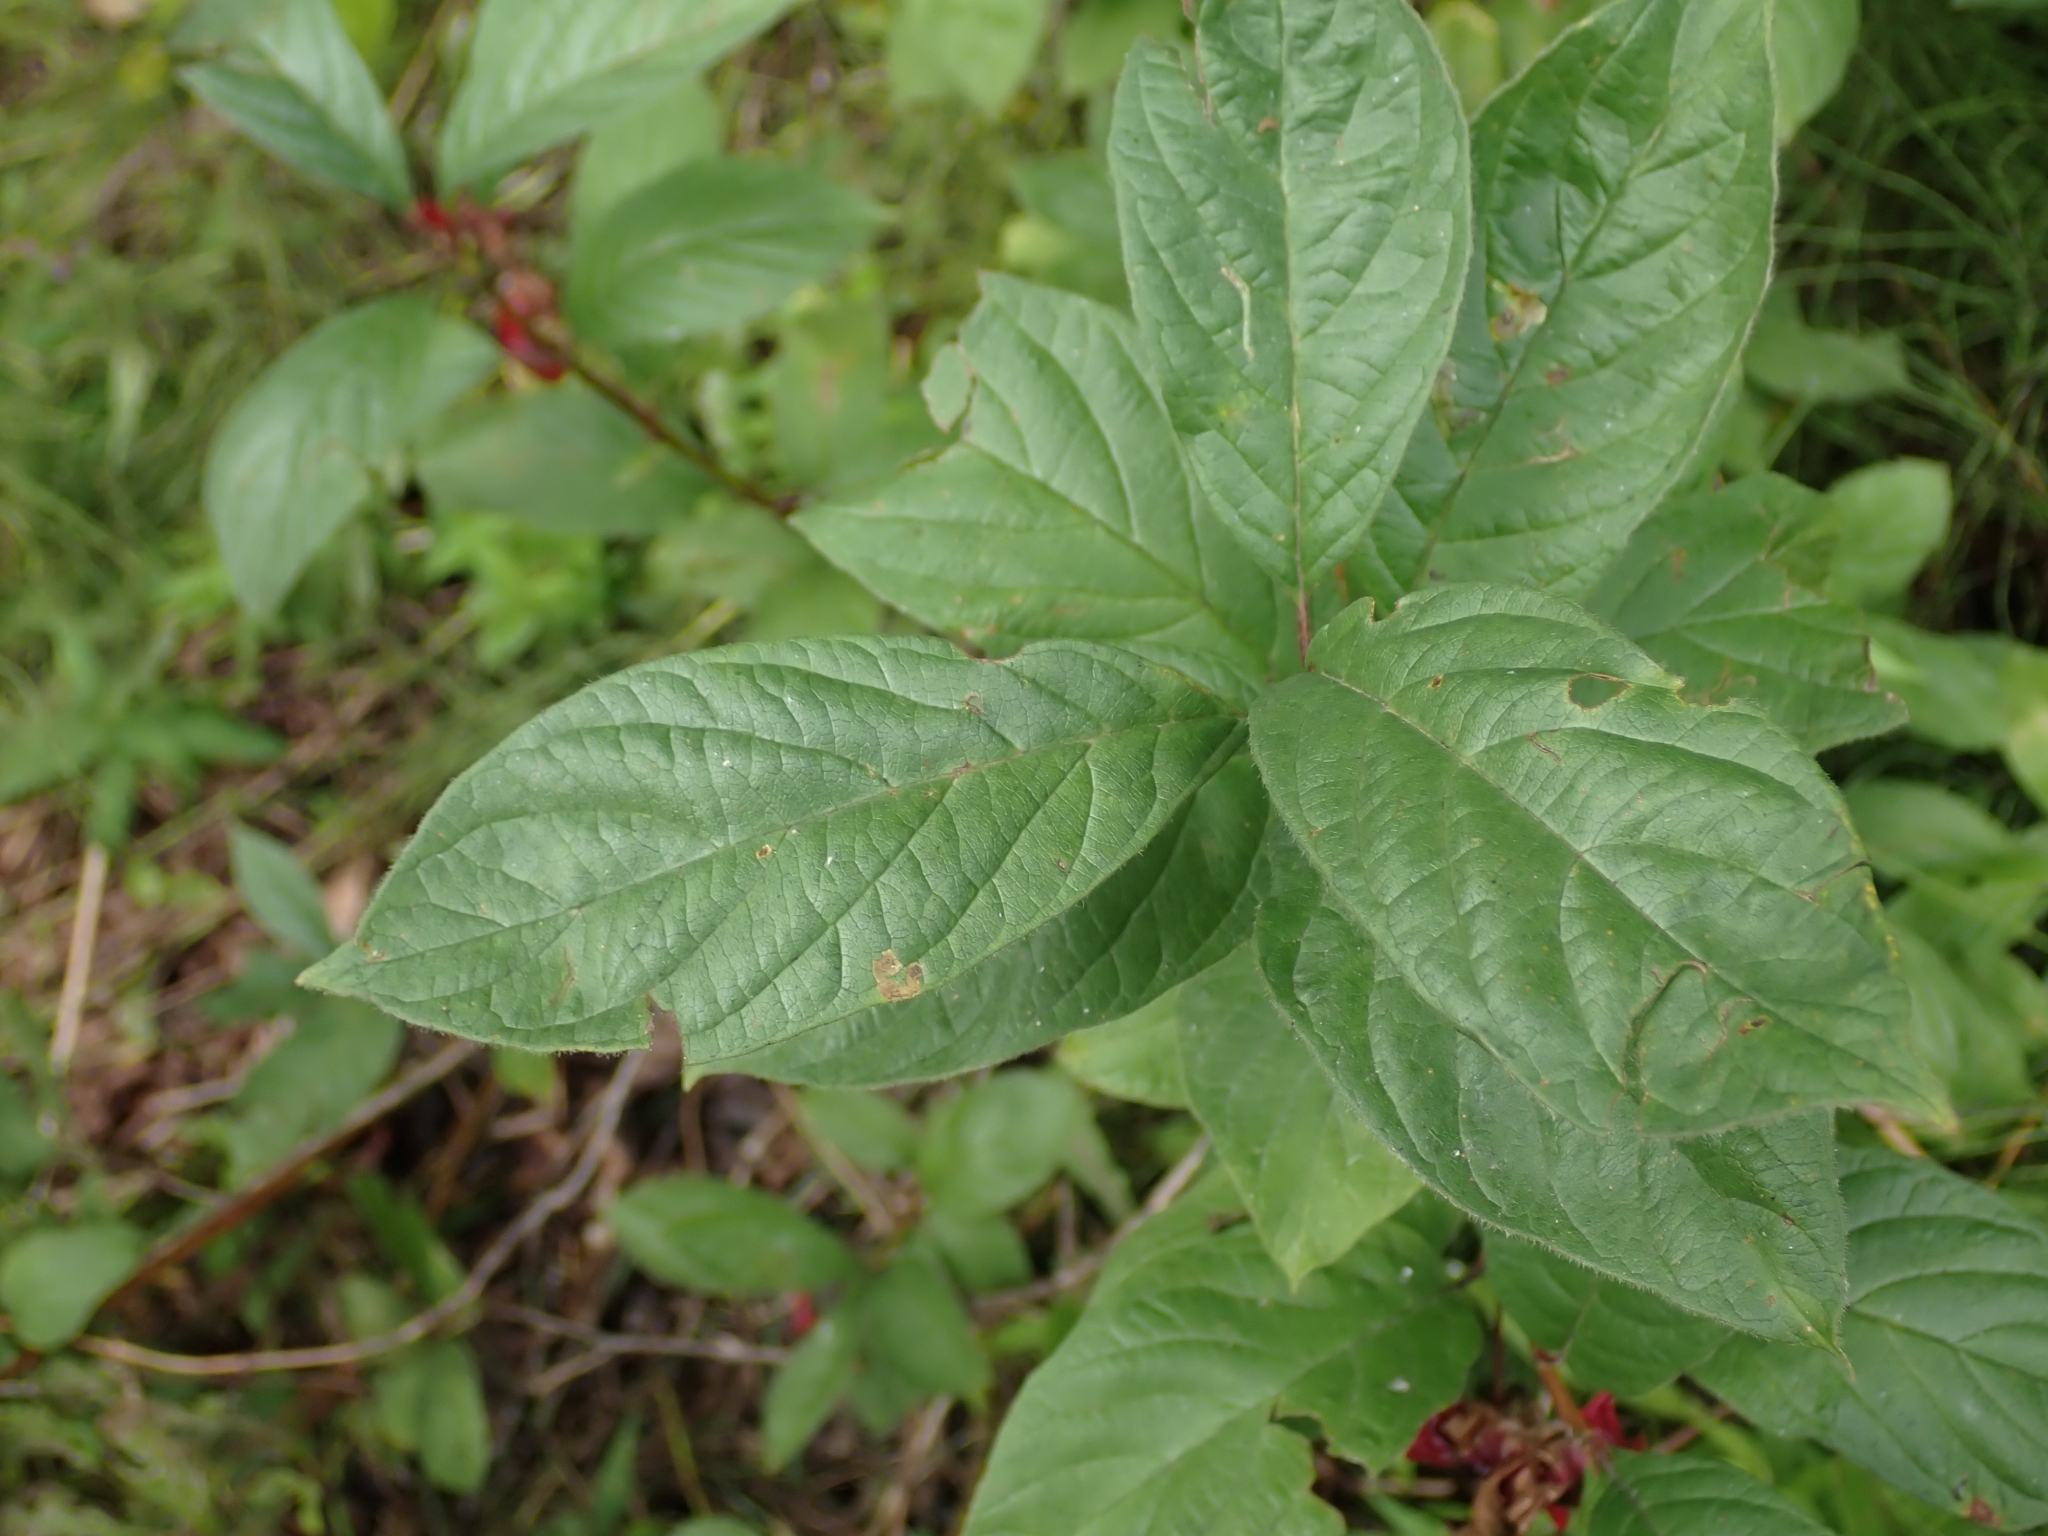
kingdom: Plantae
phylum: Tracheophyta
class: Magnoliopsida
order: Dipsacales
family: Caprifoliaceae
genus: Lonicera
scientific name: Lonicera involucrata
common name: Californian honeysuckle
